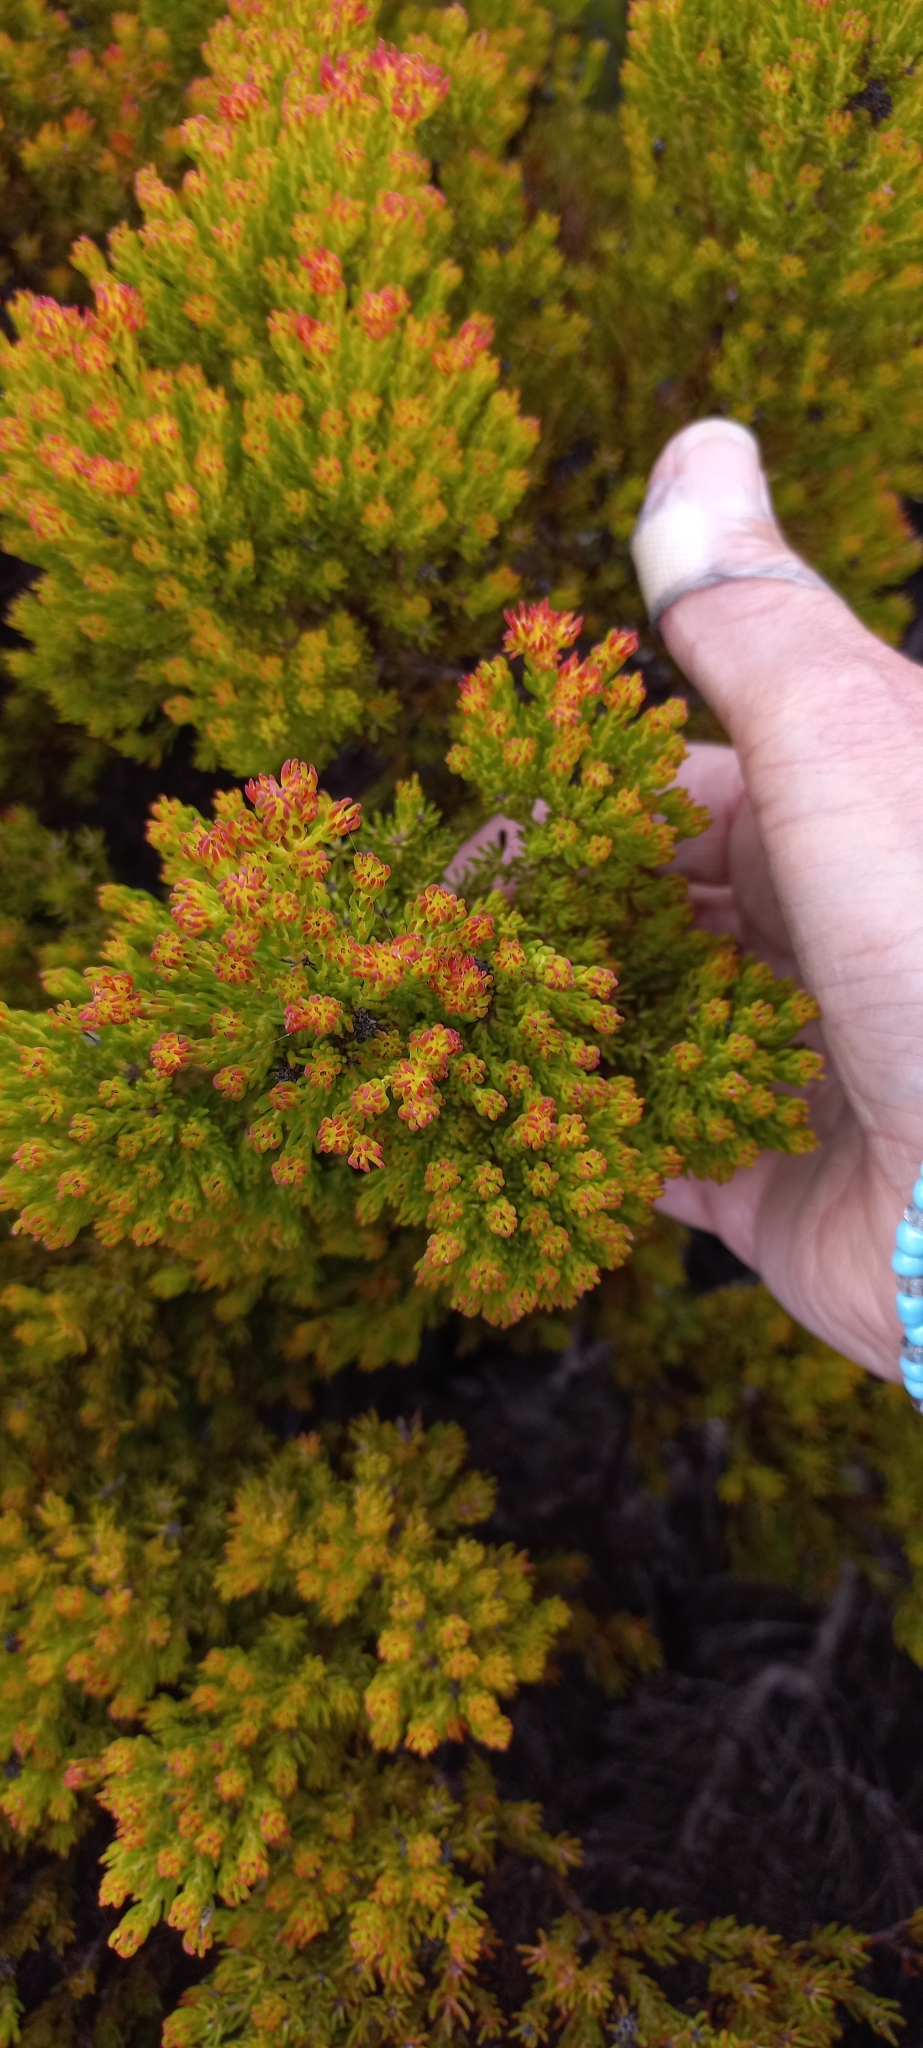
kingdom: Plantae
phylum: Tracheophyta
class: Magnoliopsida
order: Proteales
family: Proteaceae
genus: Leucadendron
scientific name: Leucadendron teretifolium
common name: Needle-leaf conebush
